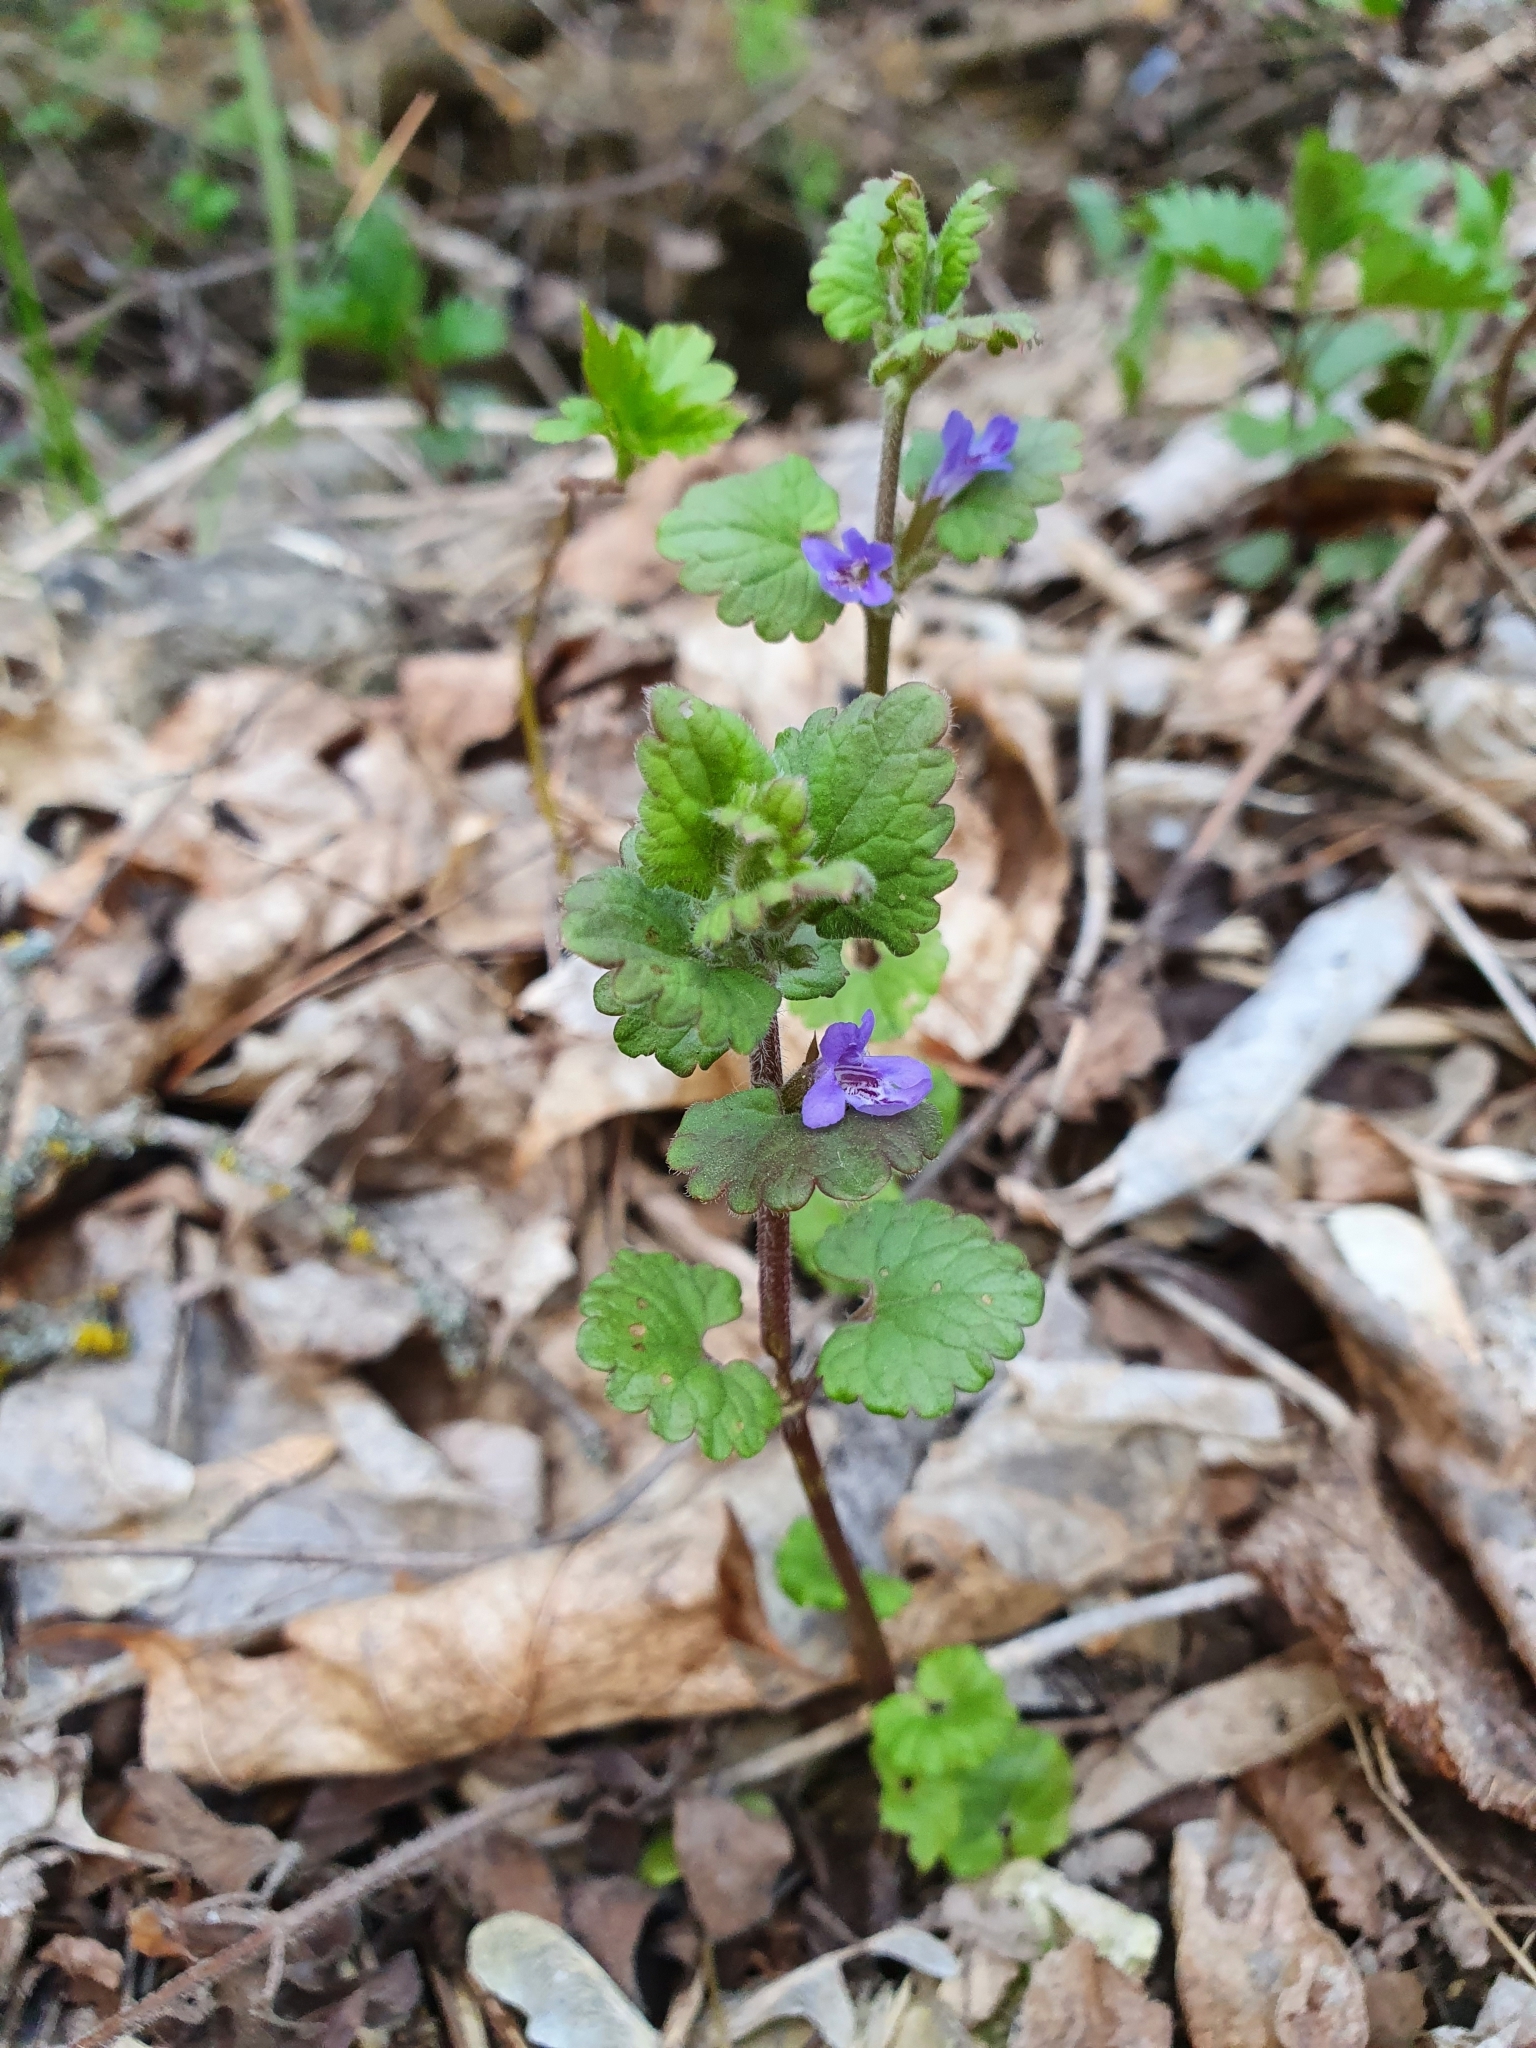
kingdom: Plantae
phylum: Tracheophyta
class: Magnoliopsida
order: Lamiales
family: Lamiaceae
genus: Glechoma
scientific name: Glechoma hederacea
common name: Ground ivy
